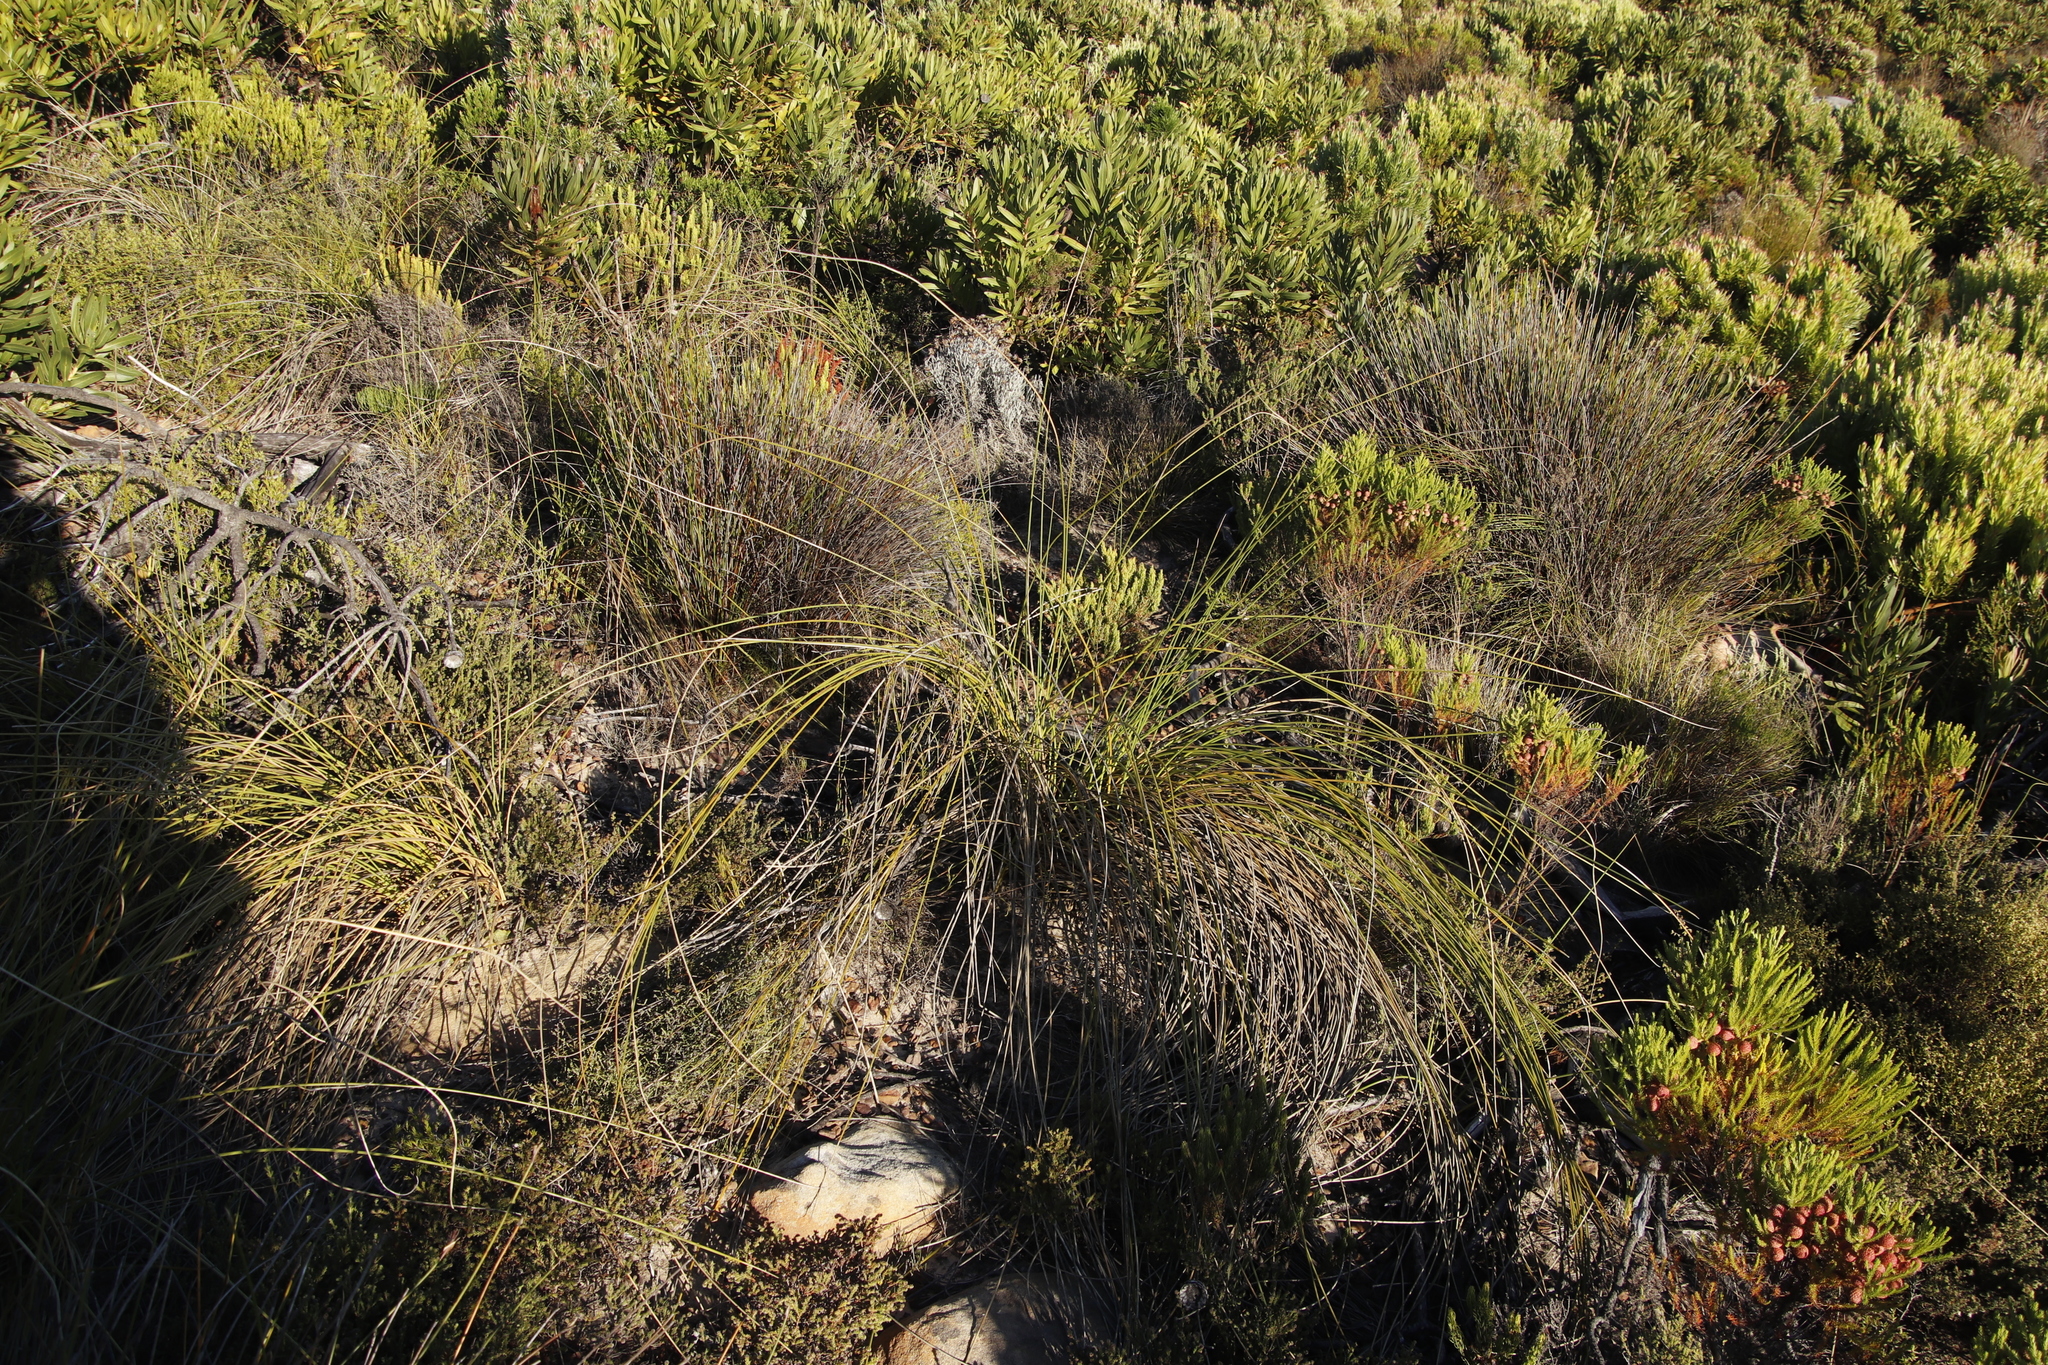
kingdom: Plantae
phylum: Tracheophyta
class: Liliopsida
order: Asparagales
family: Iridaceae
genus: Bobartia
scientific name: Bobartia indica
